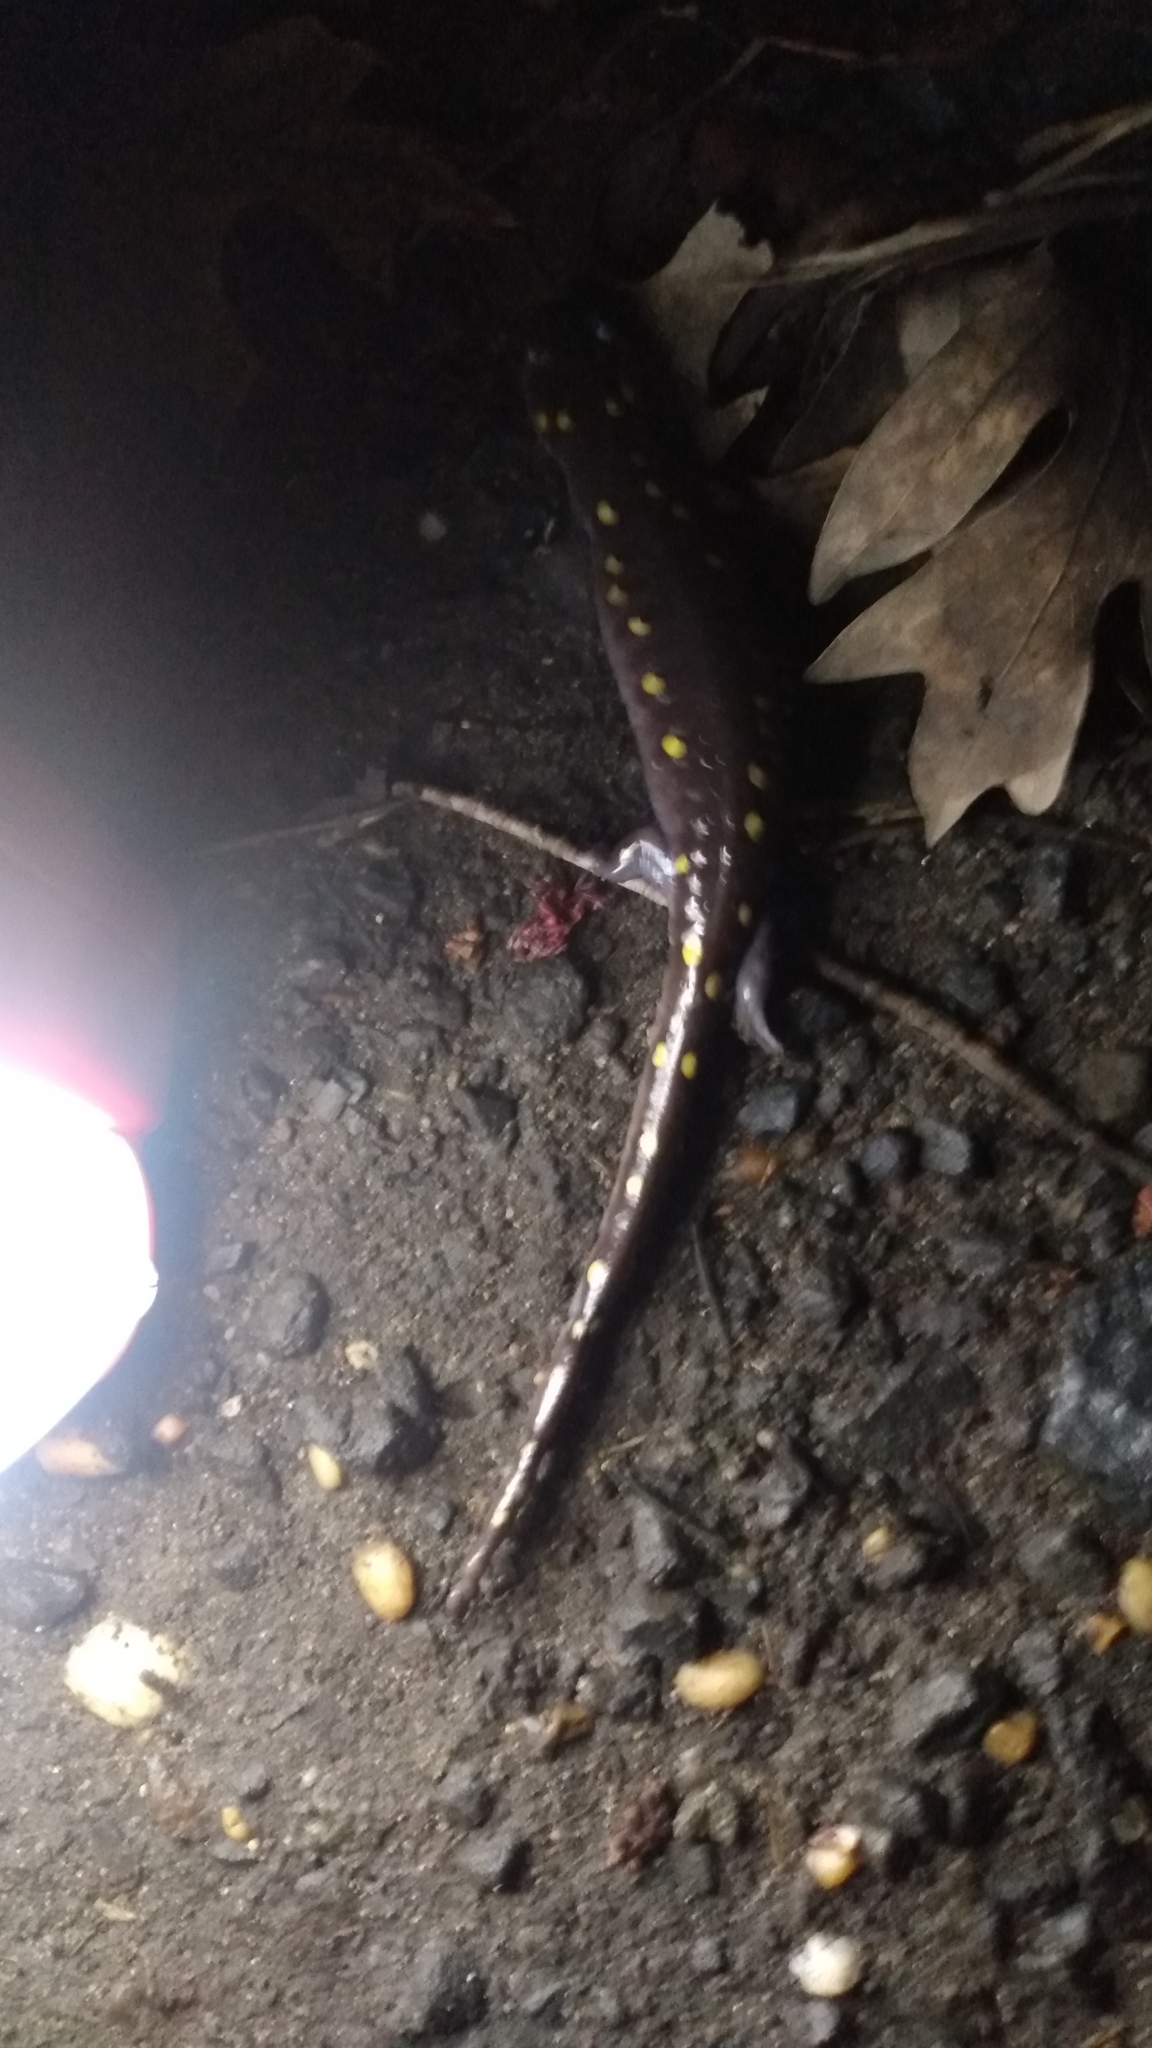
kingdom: Animalia
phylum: Chordata
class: Amphibia
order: Caudata
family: Ambystomatidae
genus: Ambystoma
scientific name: Ambystoma maculatum
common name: Spotted salamander
